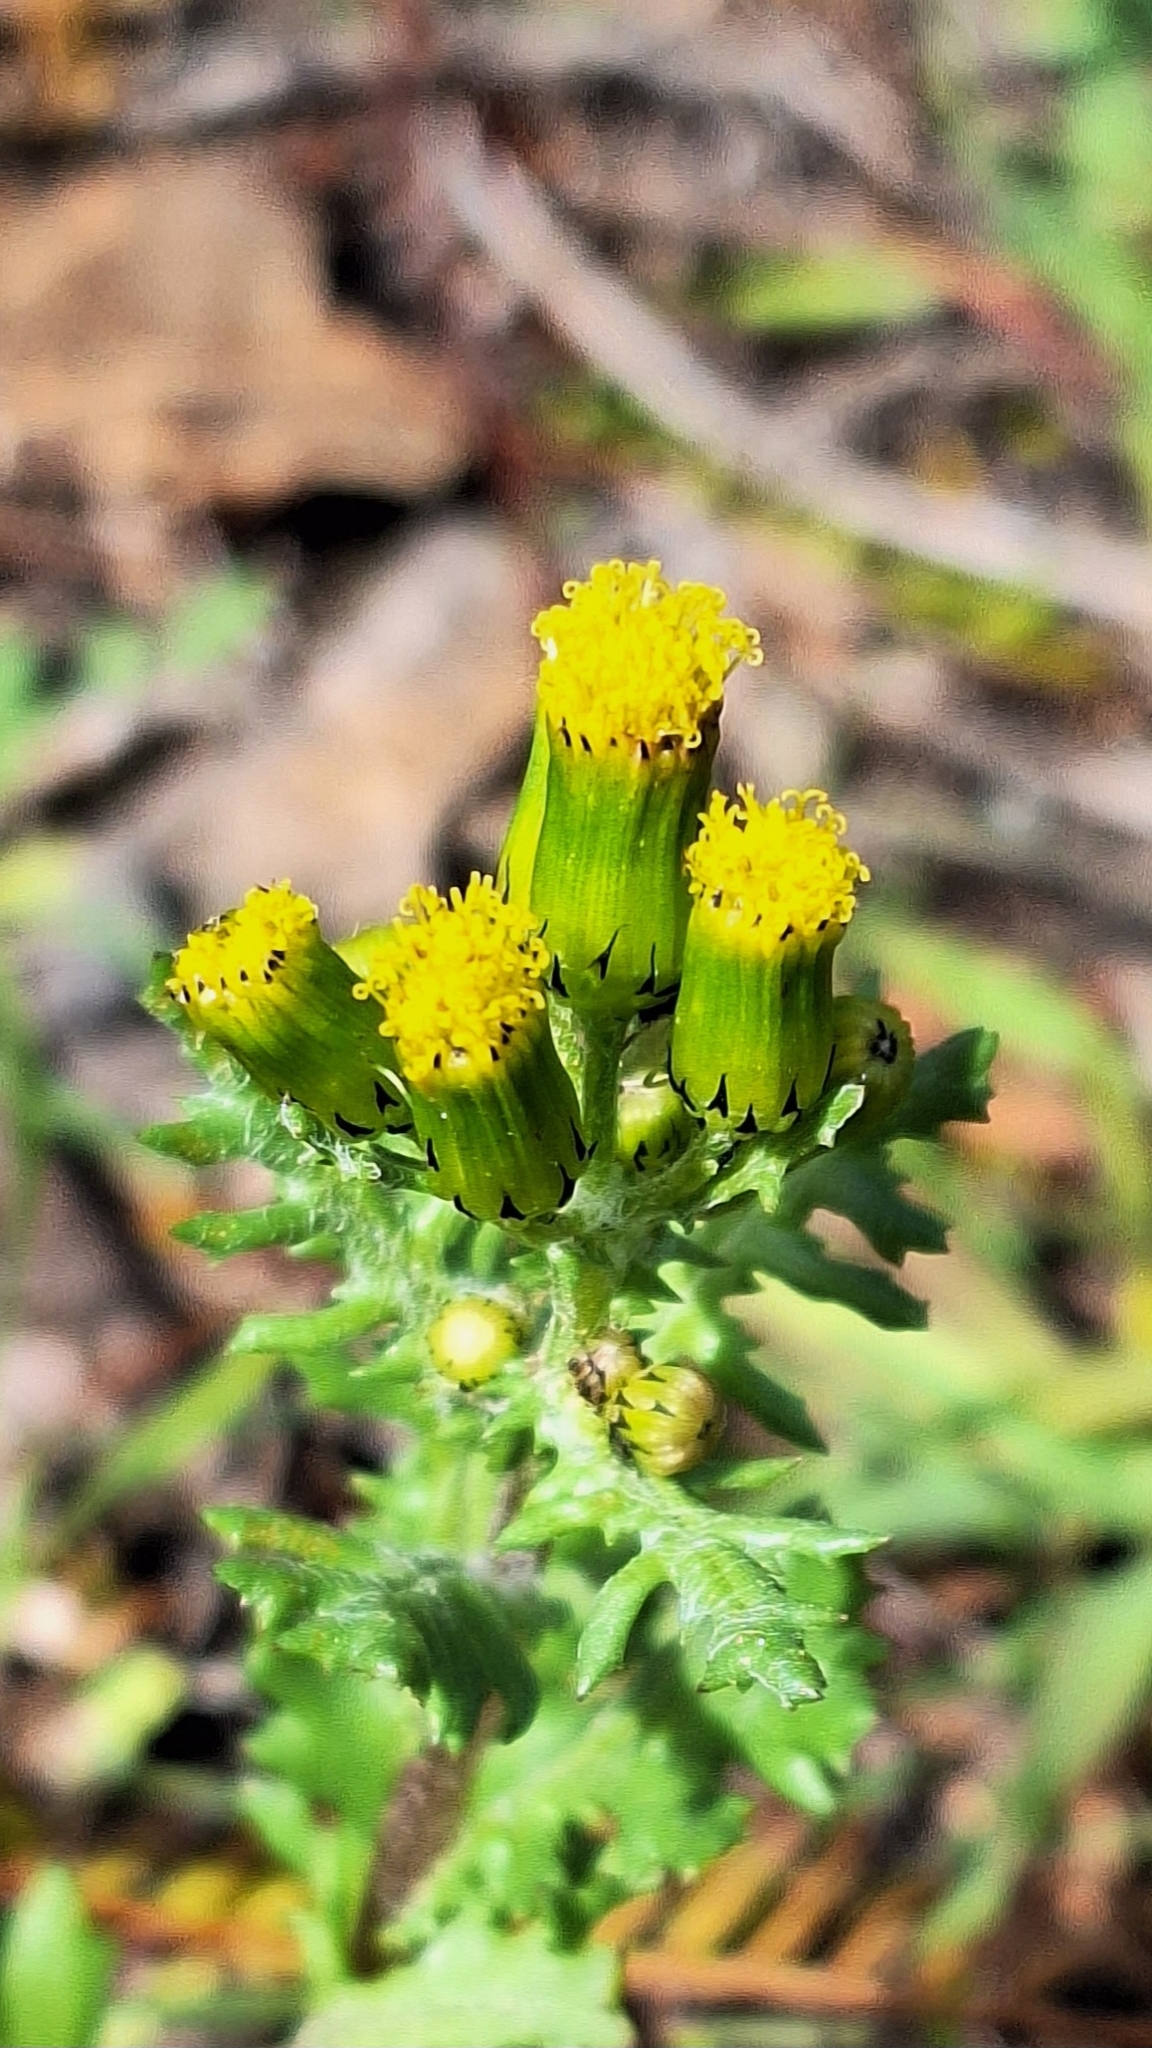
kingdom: Plantae
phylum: Tracheophyta
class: Magnoliopsida
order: Asterales
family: Asteraceae
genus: Senecio
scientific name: Senecio vulgaris
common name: Old-man-in-the-spring
